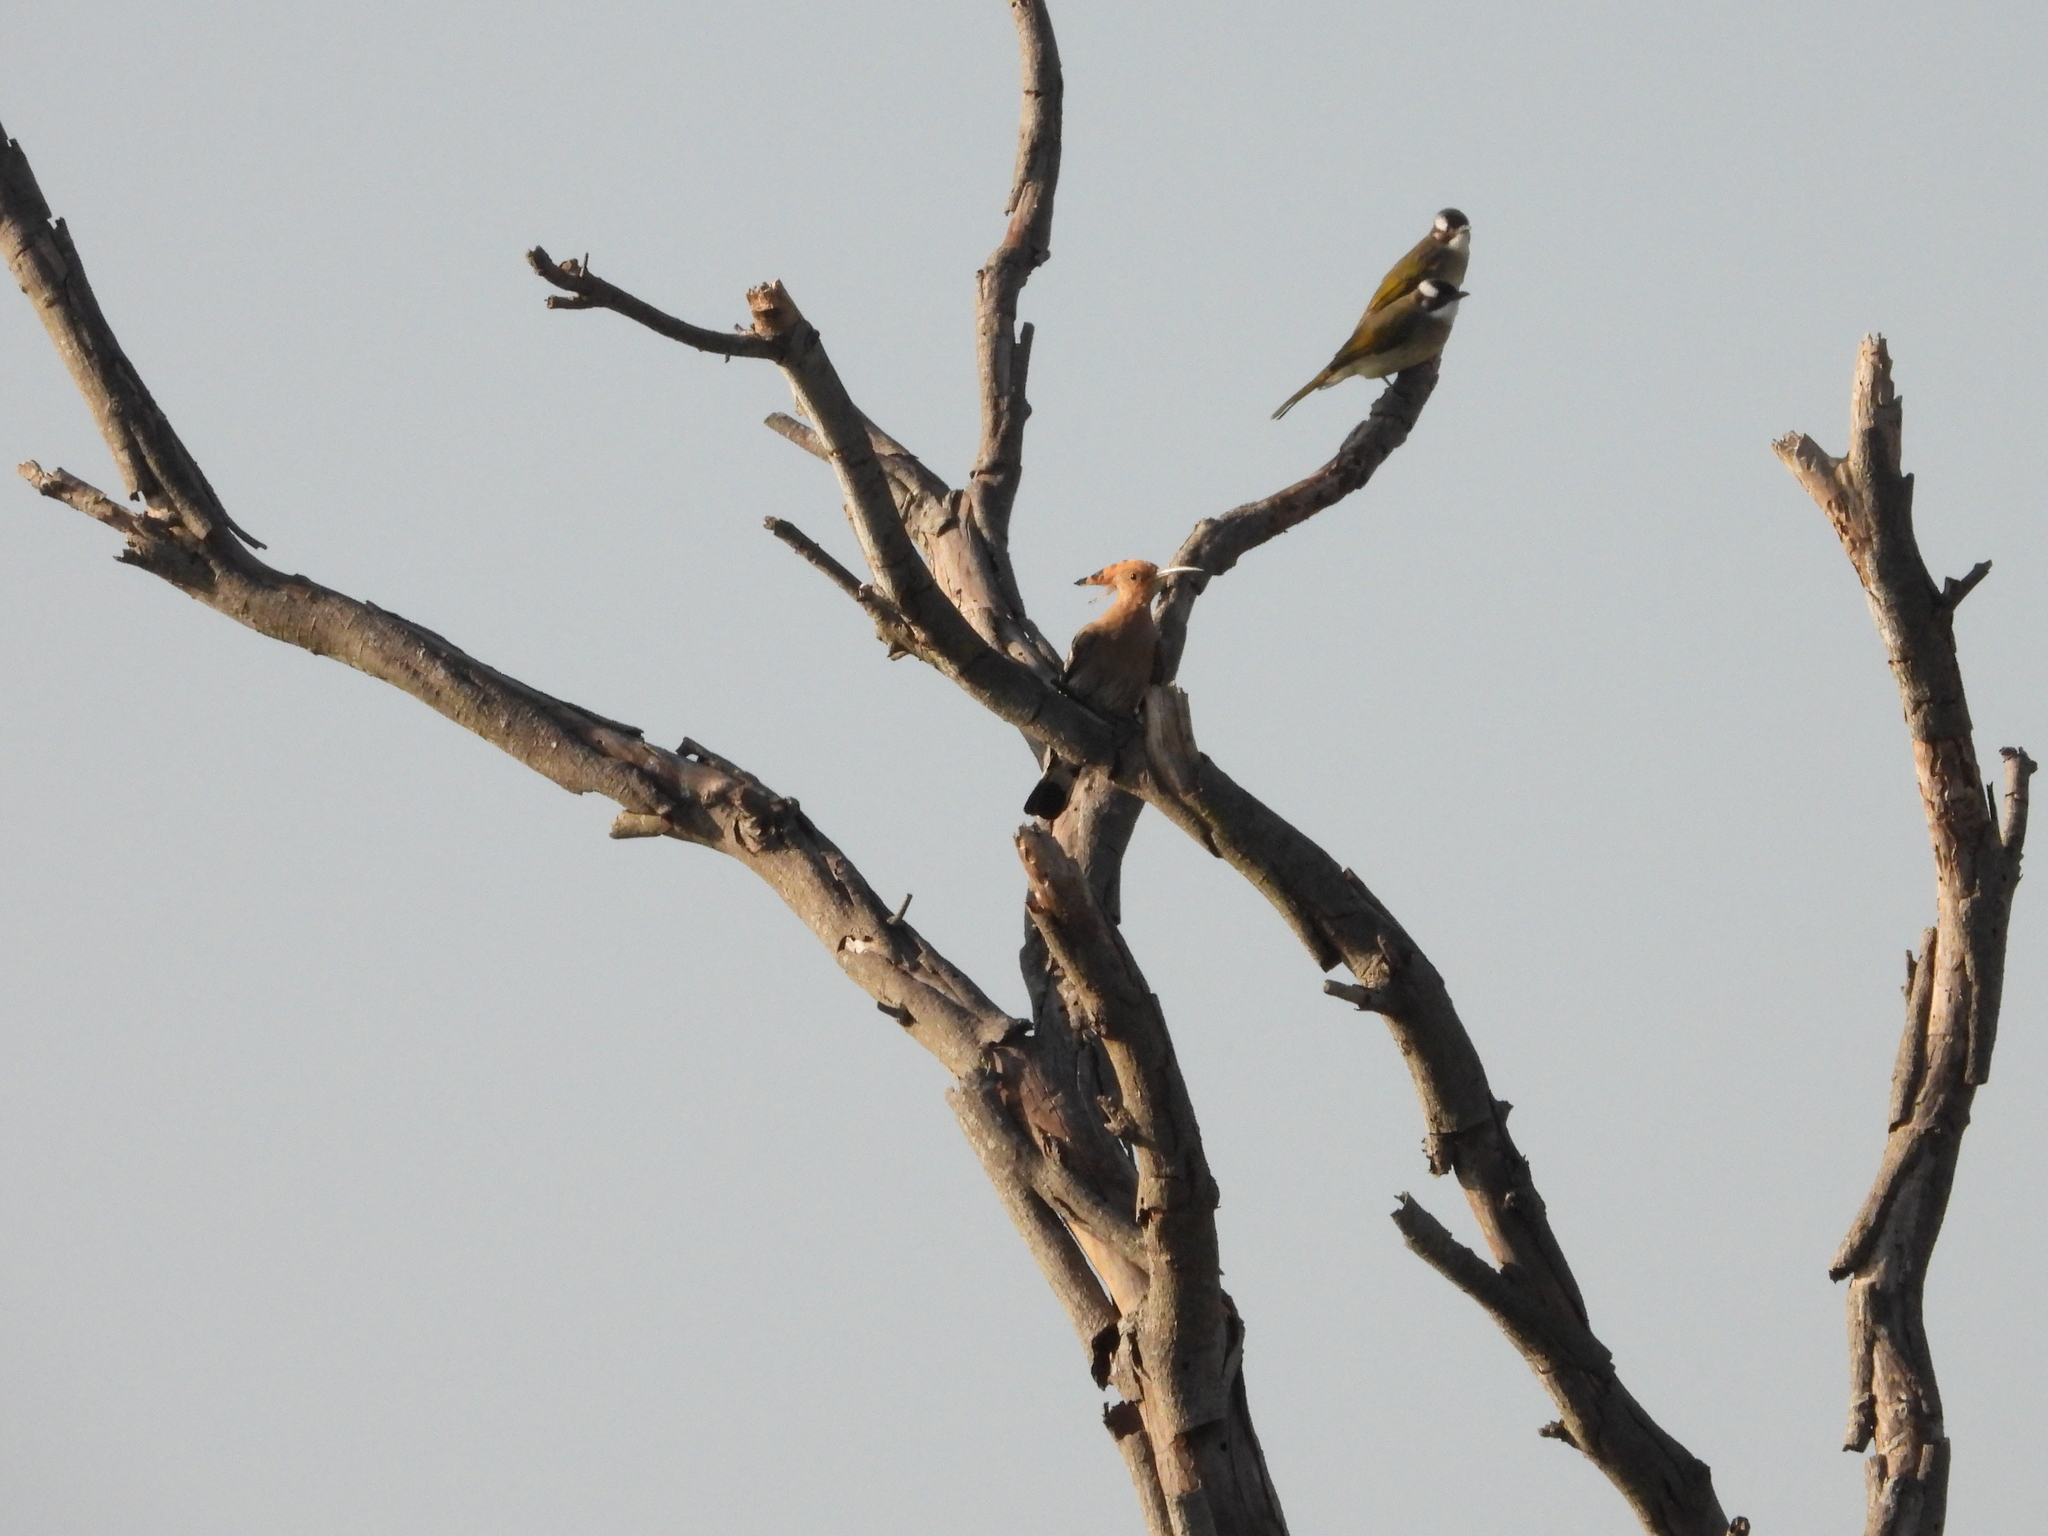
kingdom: Animalia
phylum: Chordata
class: Aves
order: Passeriformes
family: Pycnonotidae
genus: Pycnonotus
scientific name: Pycnonotus sinensis
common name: Light-vented bulbul
